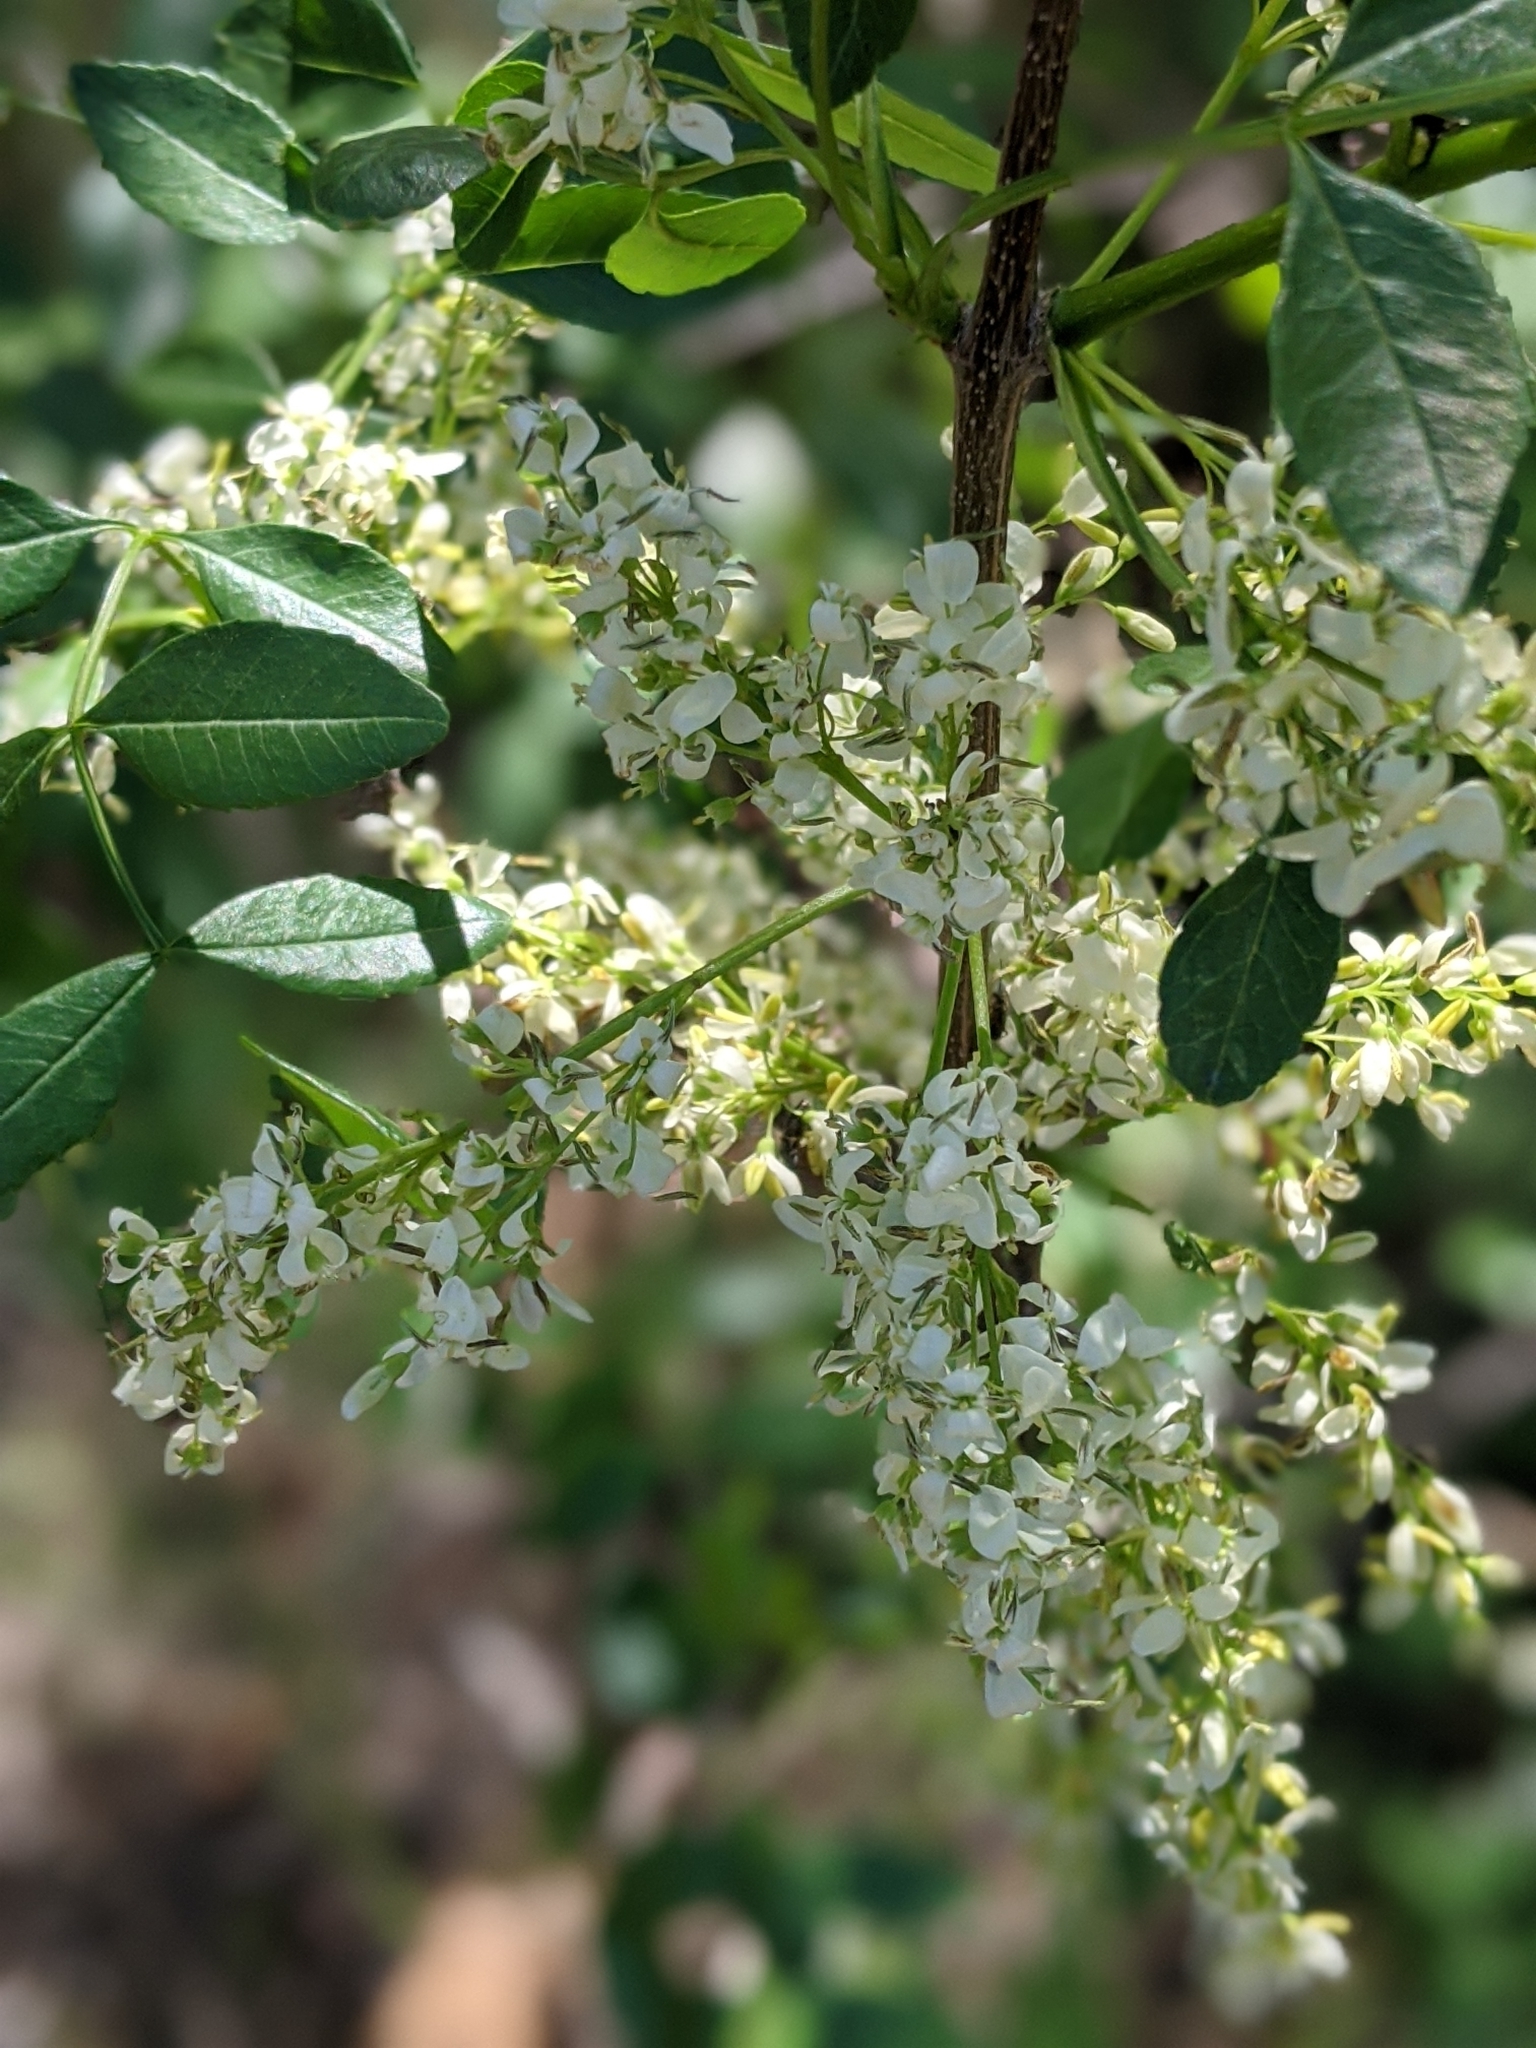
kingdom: Plantae
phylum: Tracheophyta
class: Magnoliopsida
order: Lamiales
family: Oleaceae
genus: Fraxinus
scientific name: Fraxinus dipetala
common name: California ash
